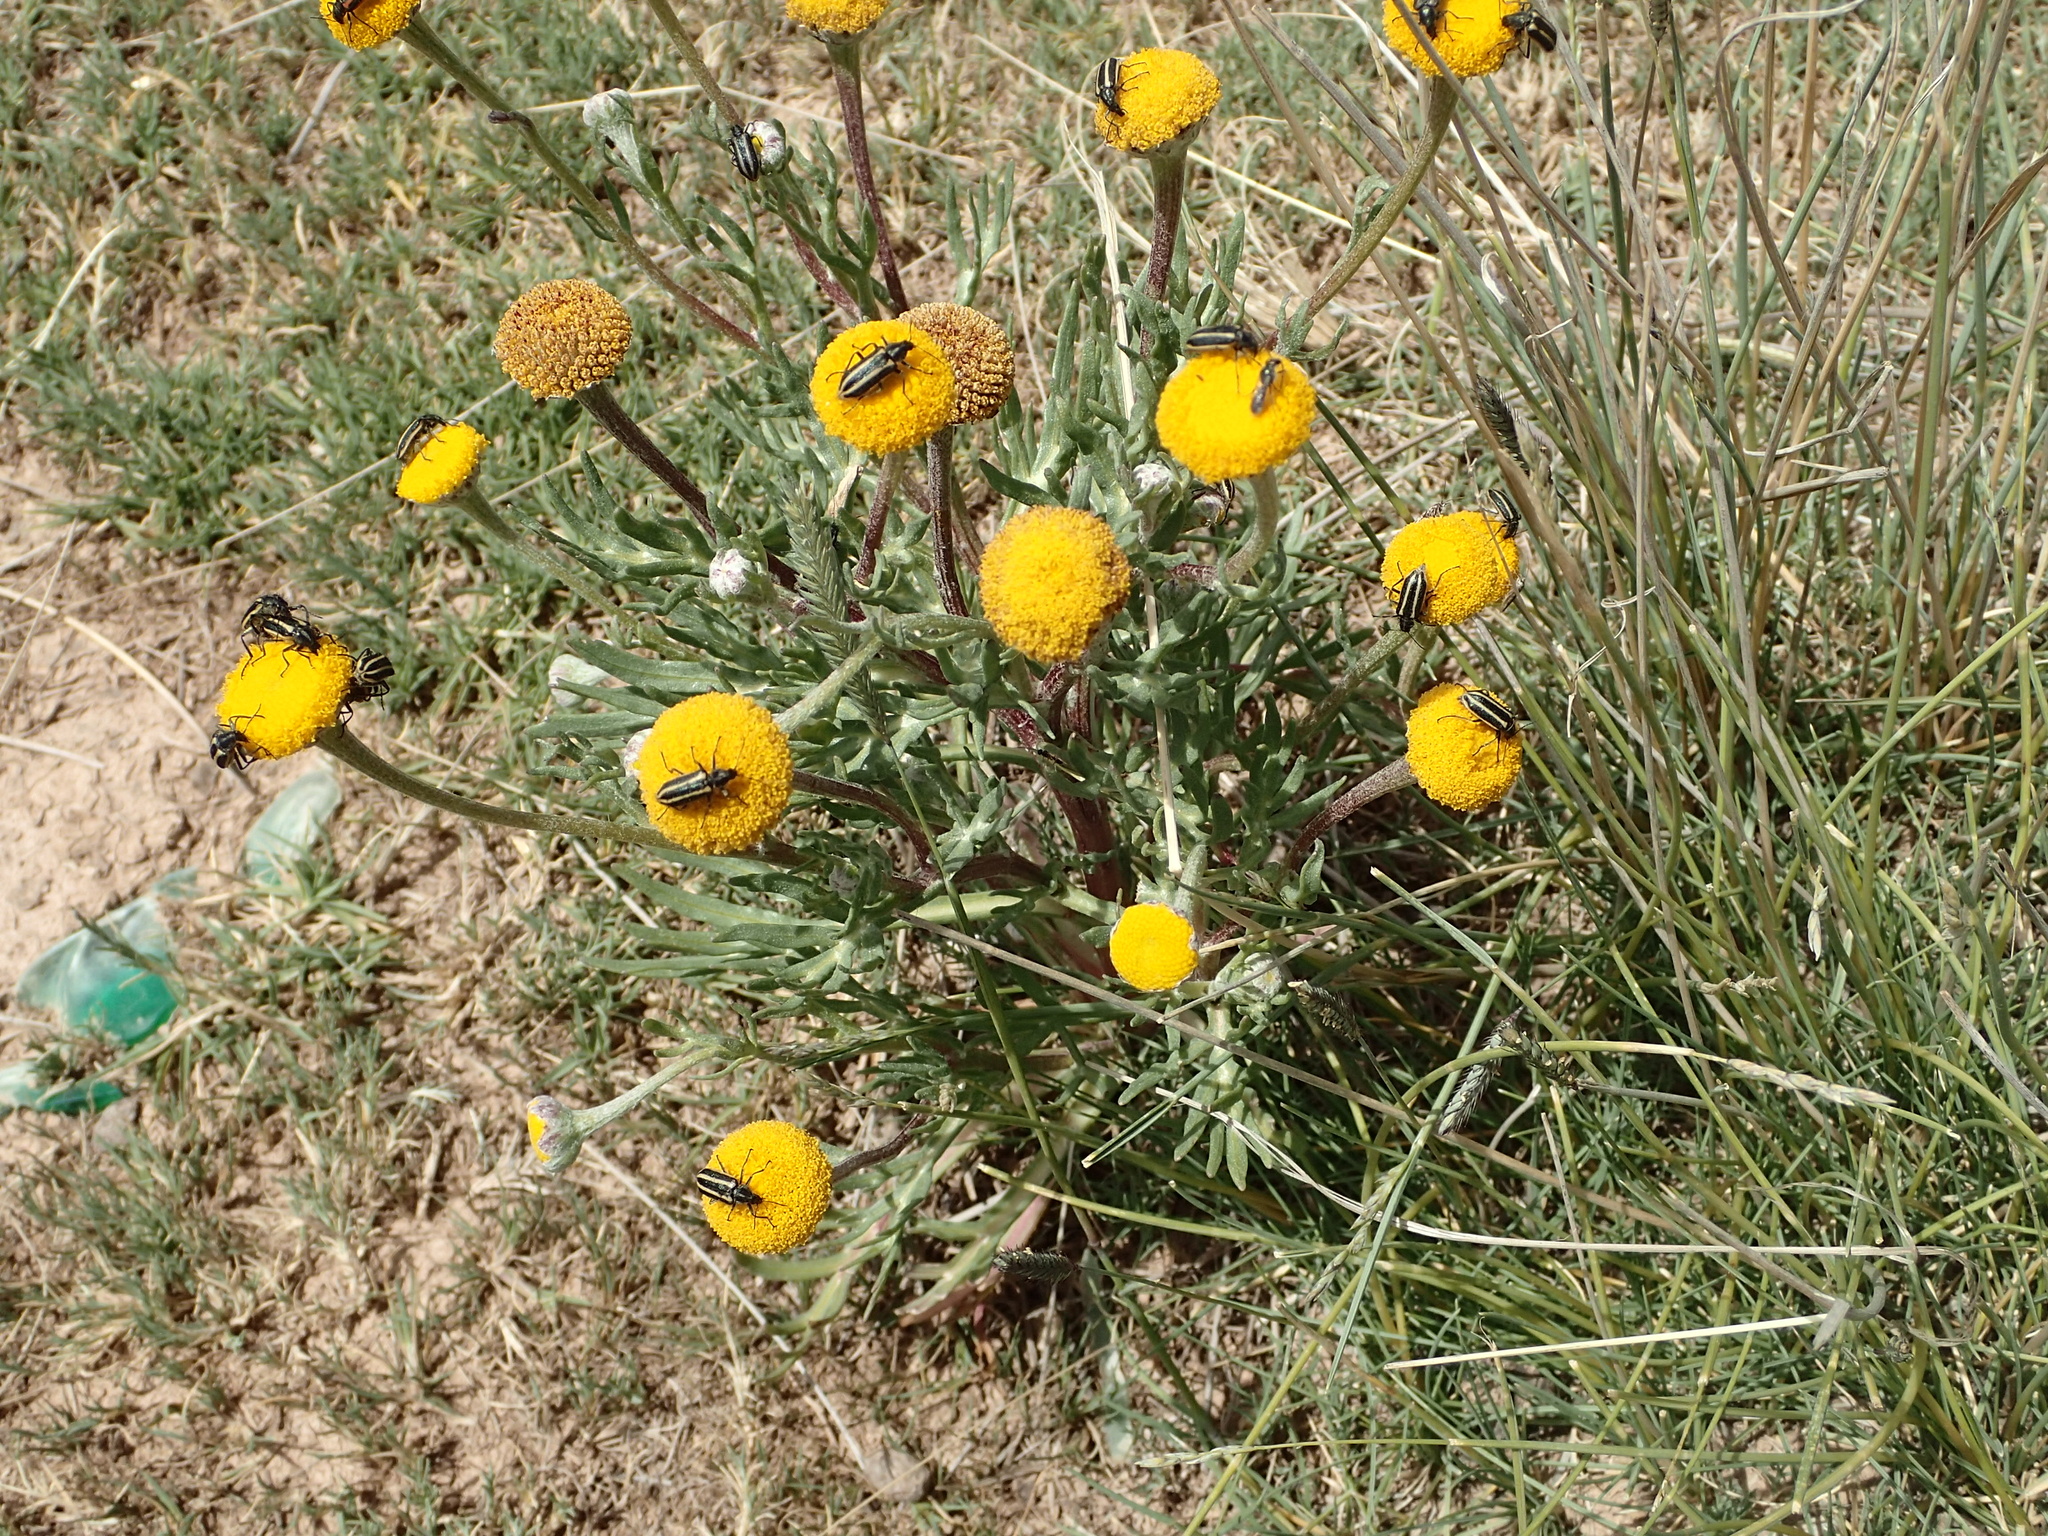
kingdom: Plantae
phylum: Tracheophyta
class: Magnoliopsida
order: Asterales
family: Asteraceae
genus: Hymenoxys
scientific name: Hymenoxys robusta
